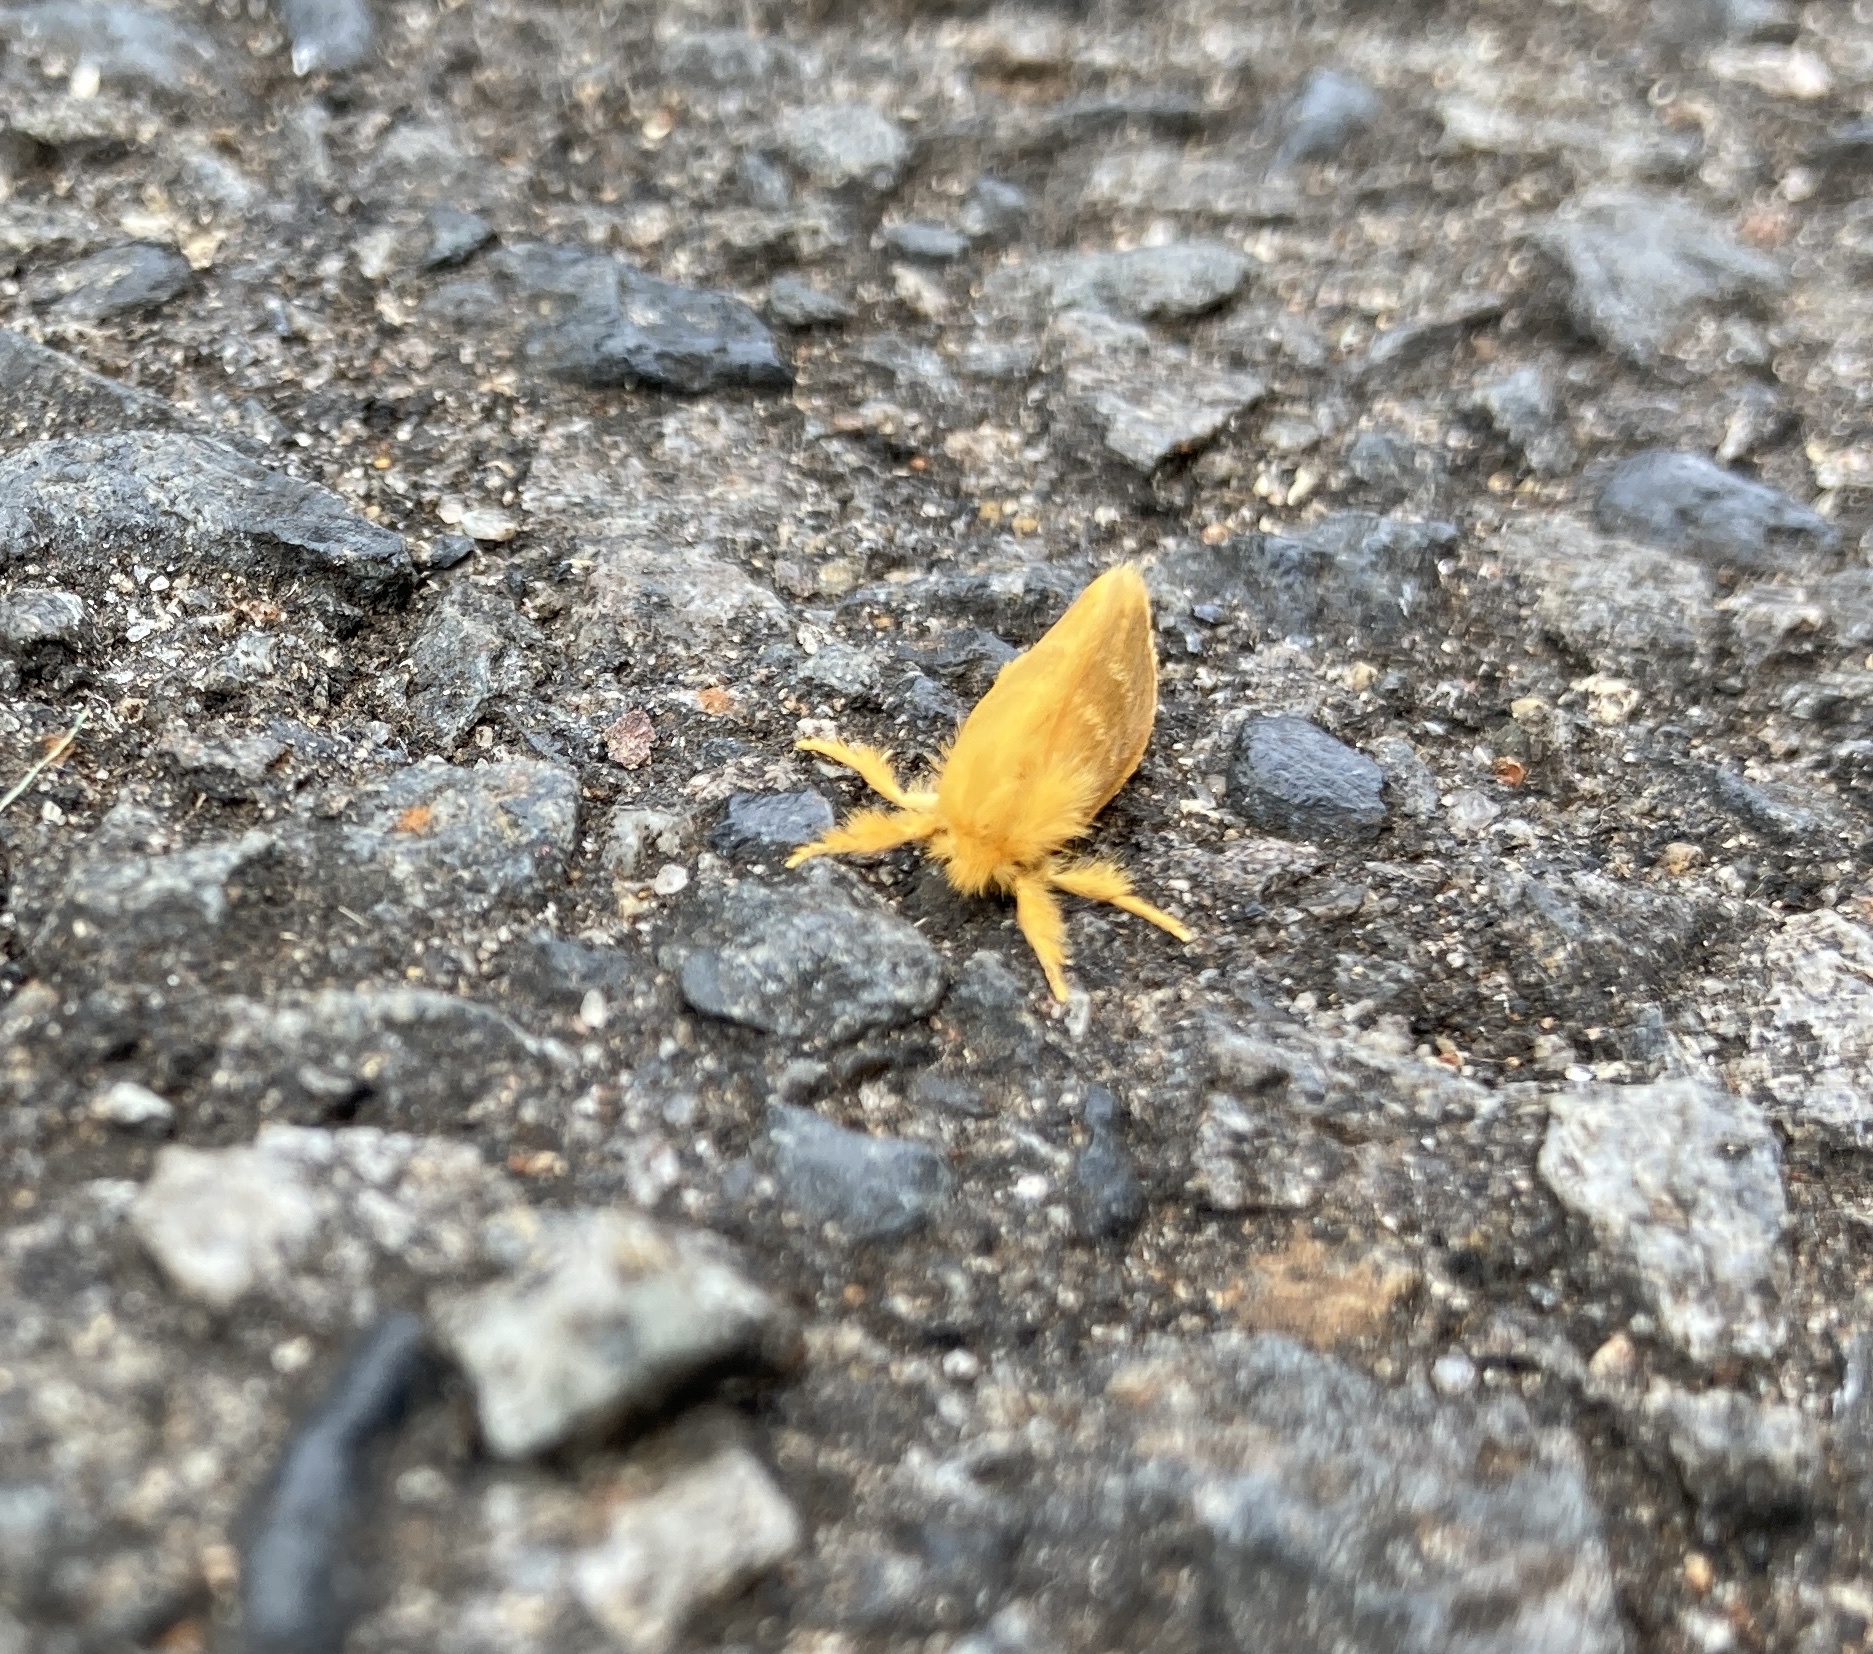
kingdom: Animalia
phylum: Arthropoda
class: Insecta
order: Lepidoptera
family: Erebidae
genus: Euproctis
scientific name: Euproctis lutea
